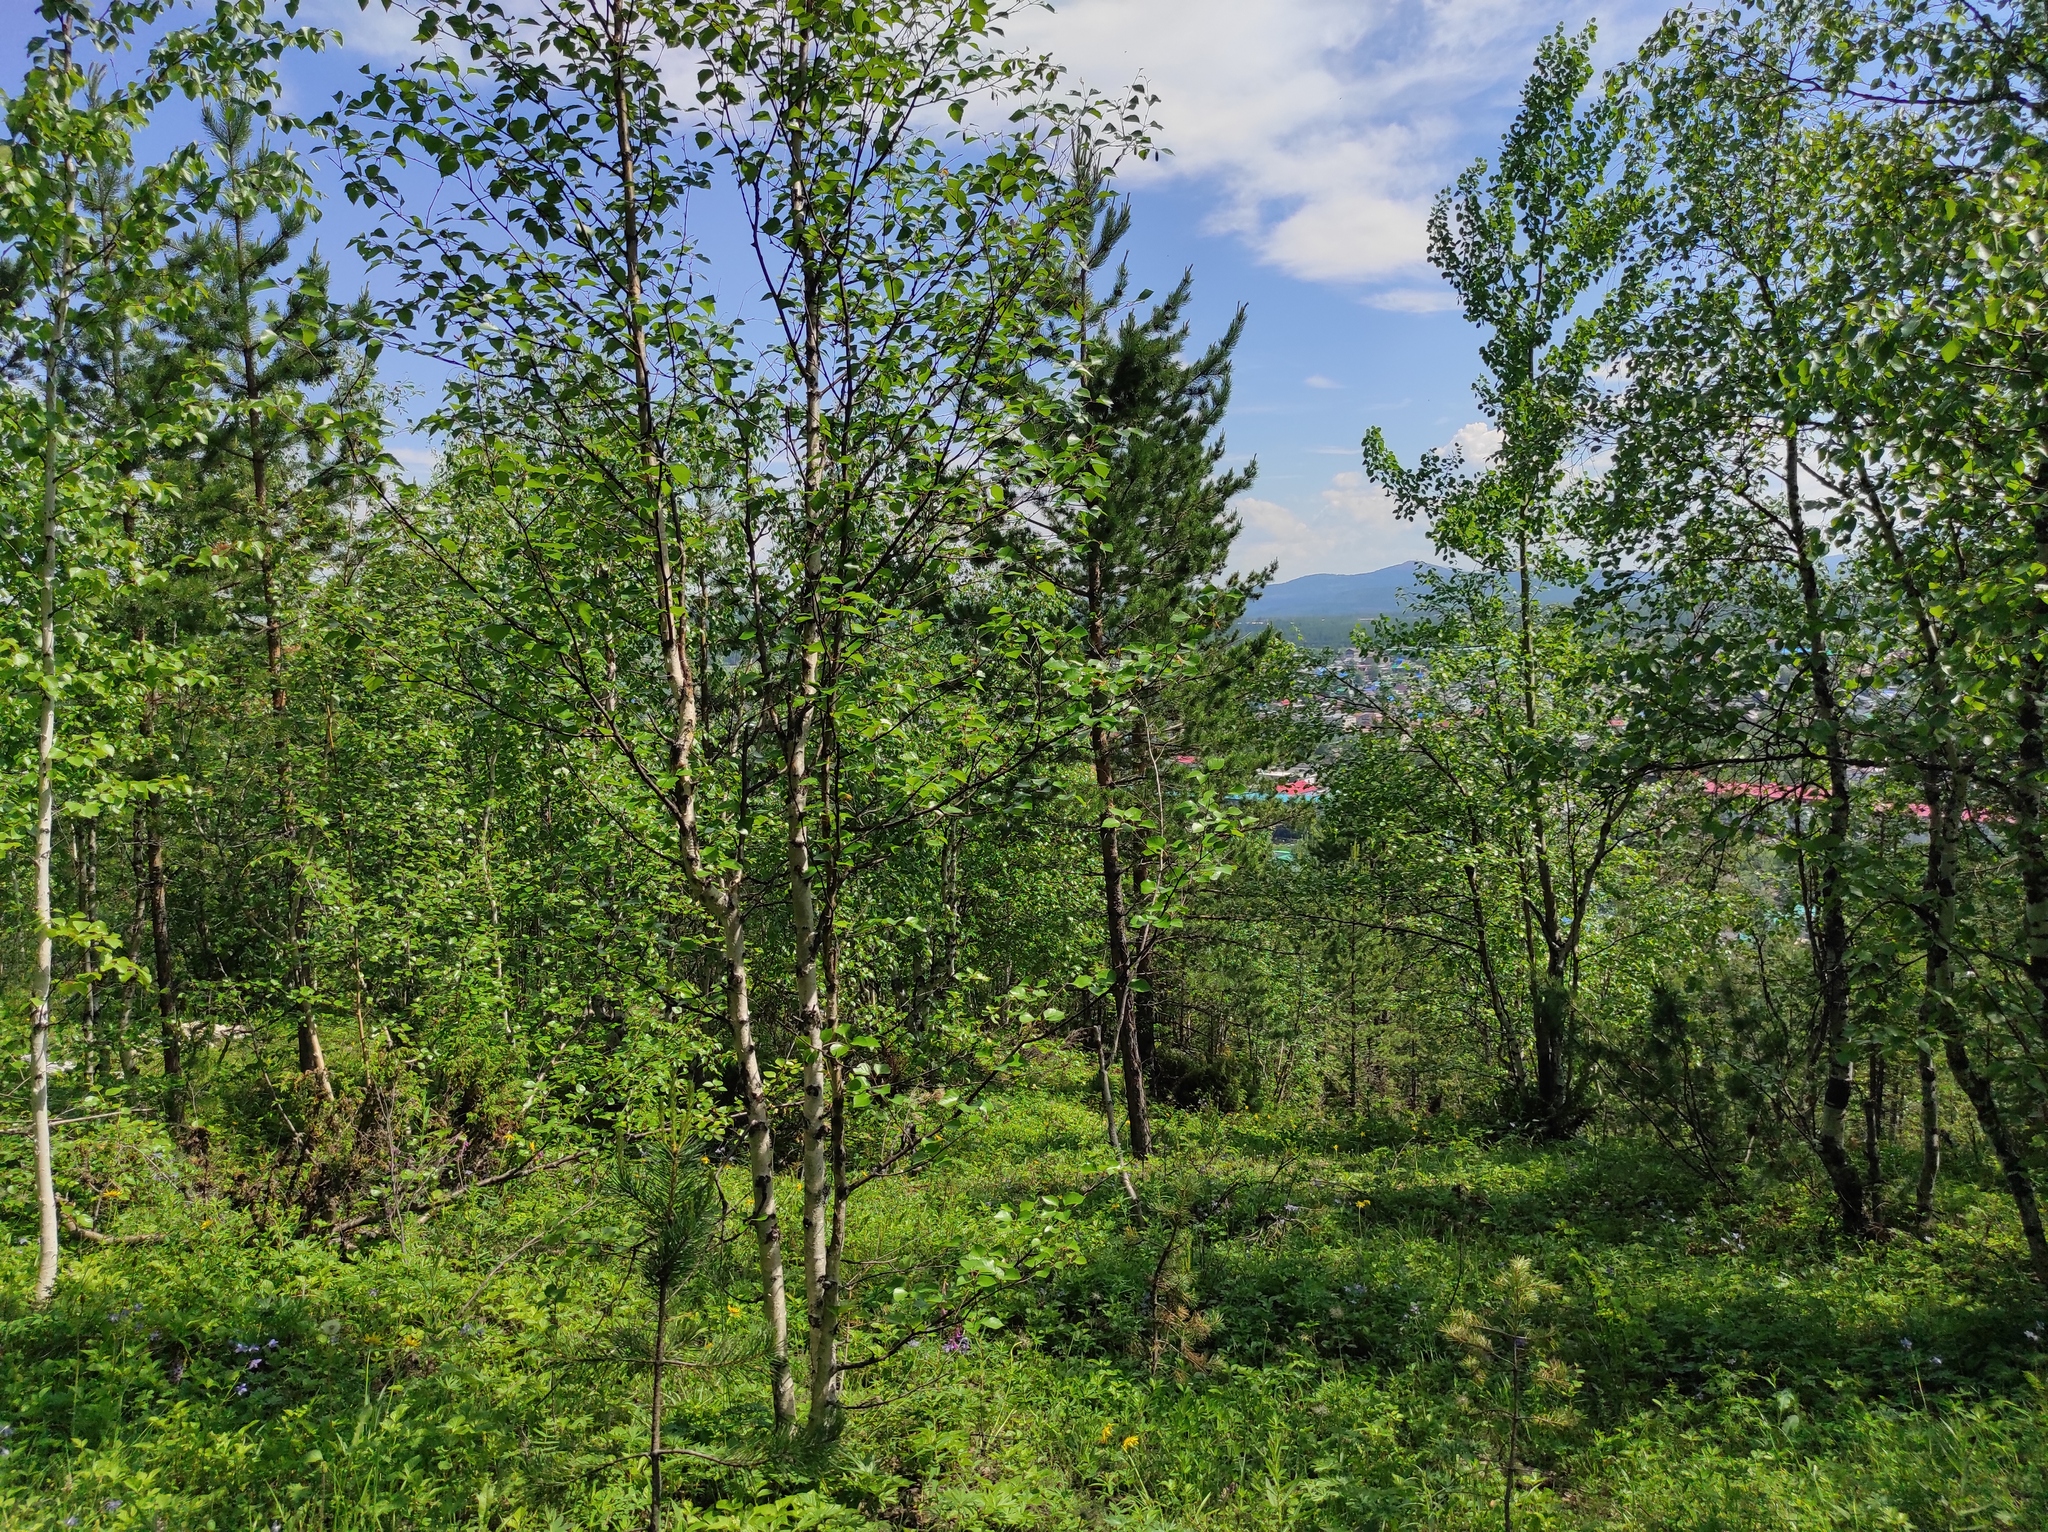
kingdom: Plantae
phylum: Tracheophyta
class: Pinopsida
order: Pinales
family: Pinaceae
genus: Pinus
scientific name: Pinus sylvestris
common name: Scots pine
